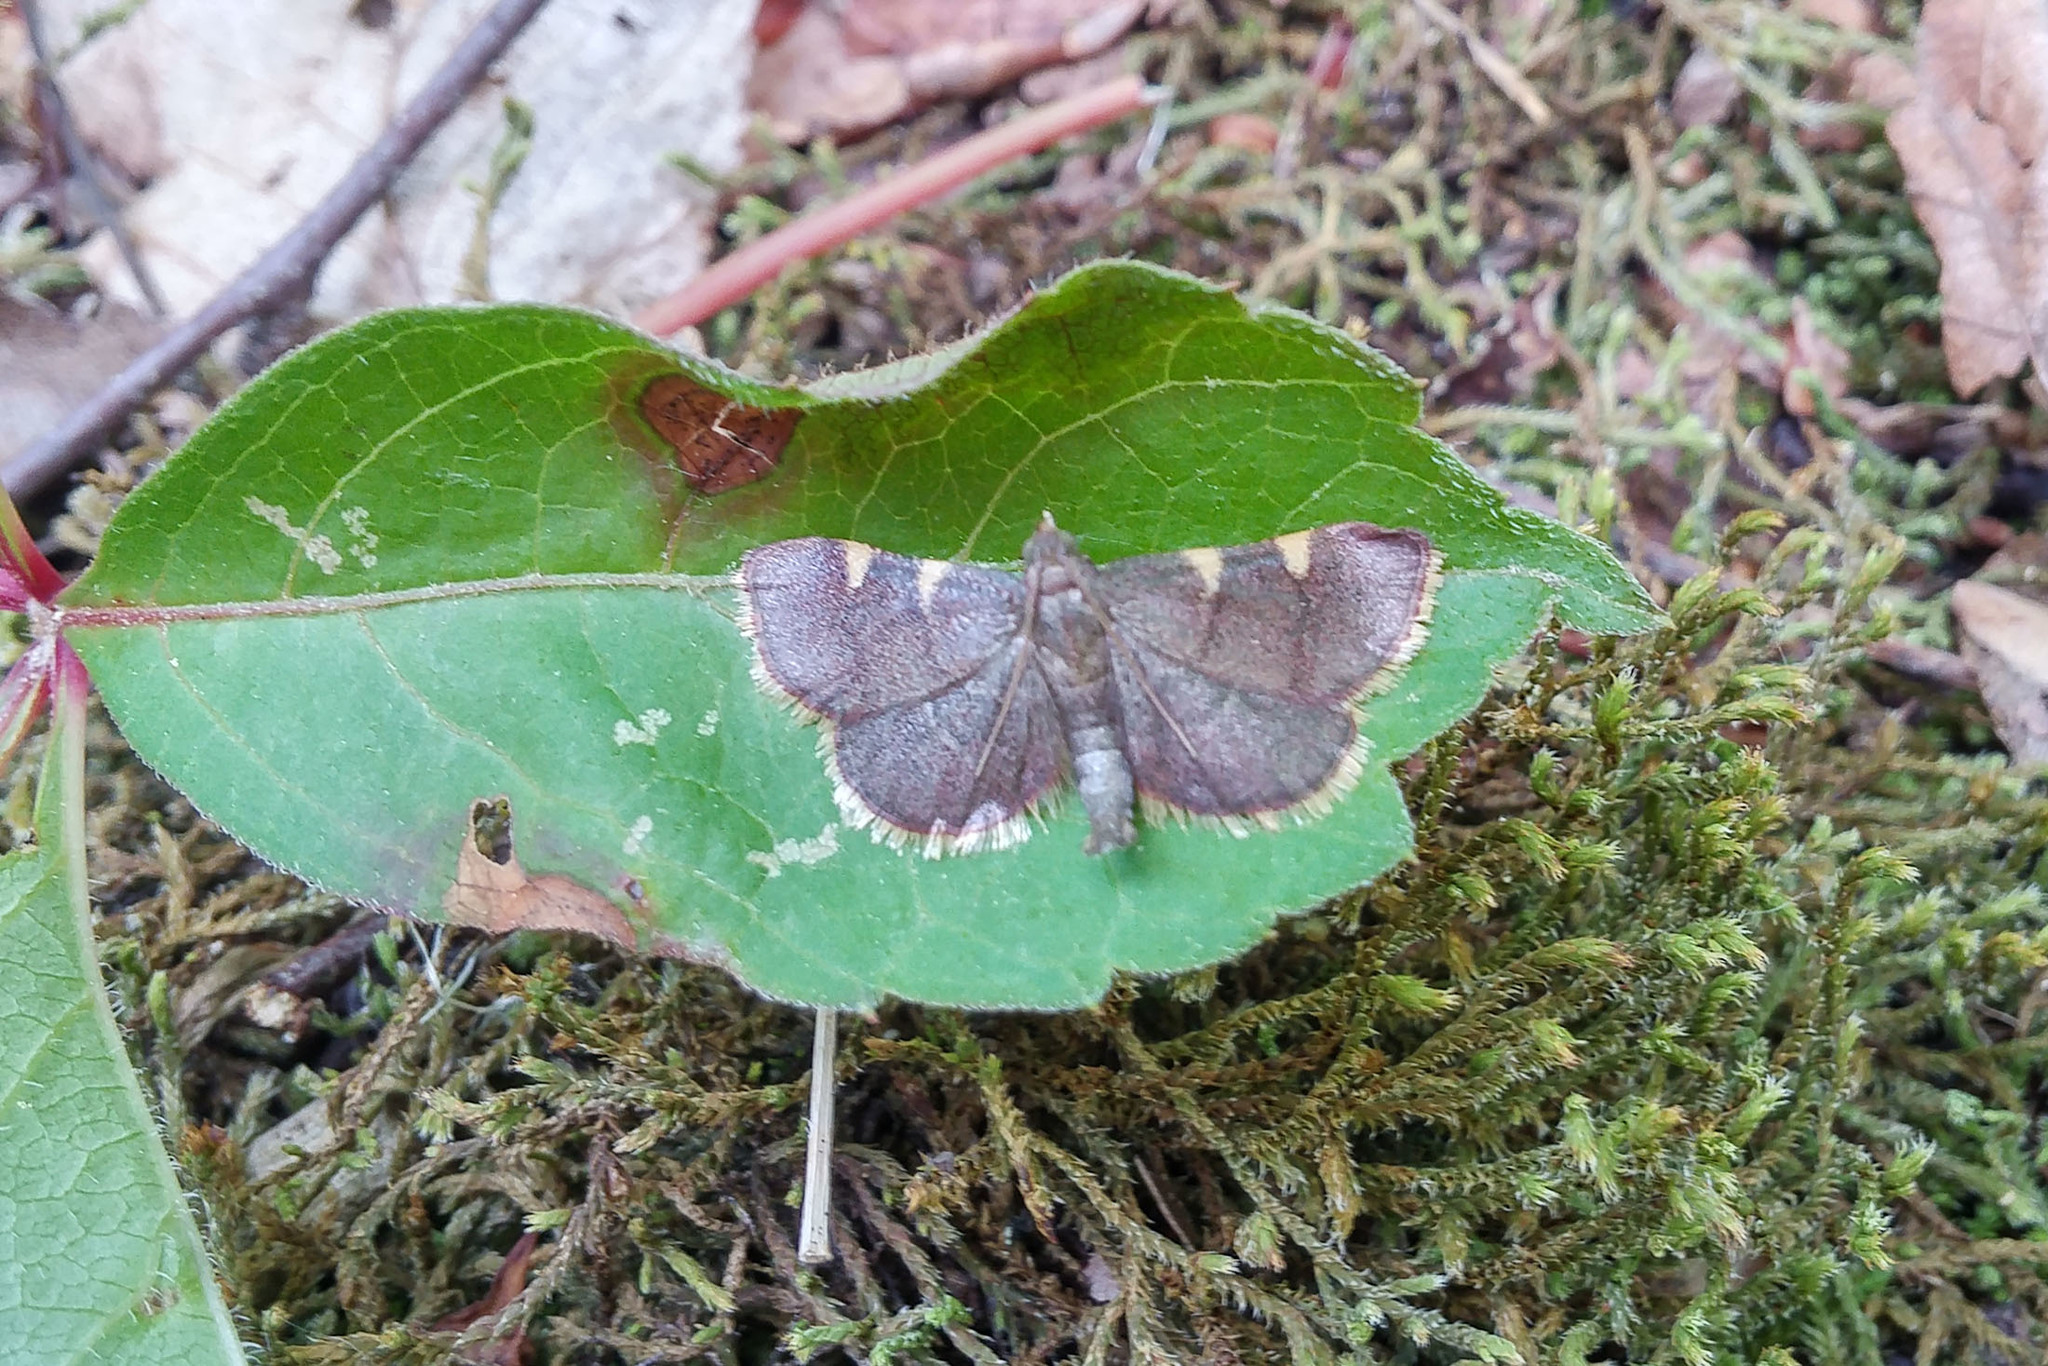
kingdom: Animalia
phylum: Arthropoda
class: Insecta
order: Lepidoptera
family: Pyralidae
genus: Hypsopygia
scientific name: Hypsopygia olinalis
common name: Yellow-fringed dolichomia moth
